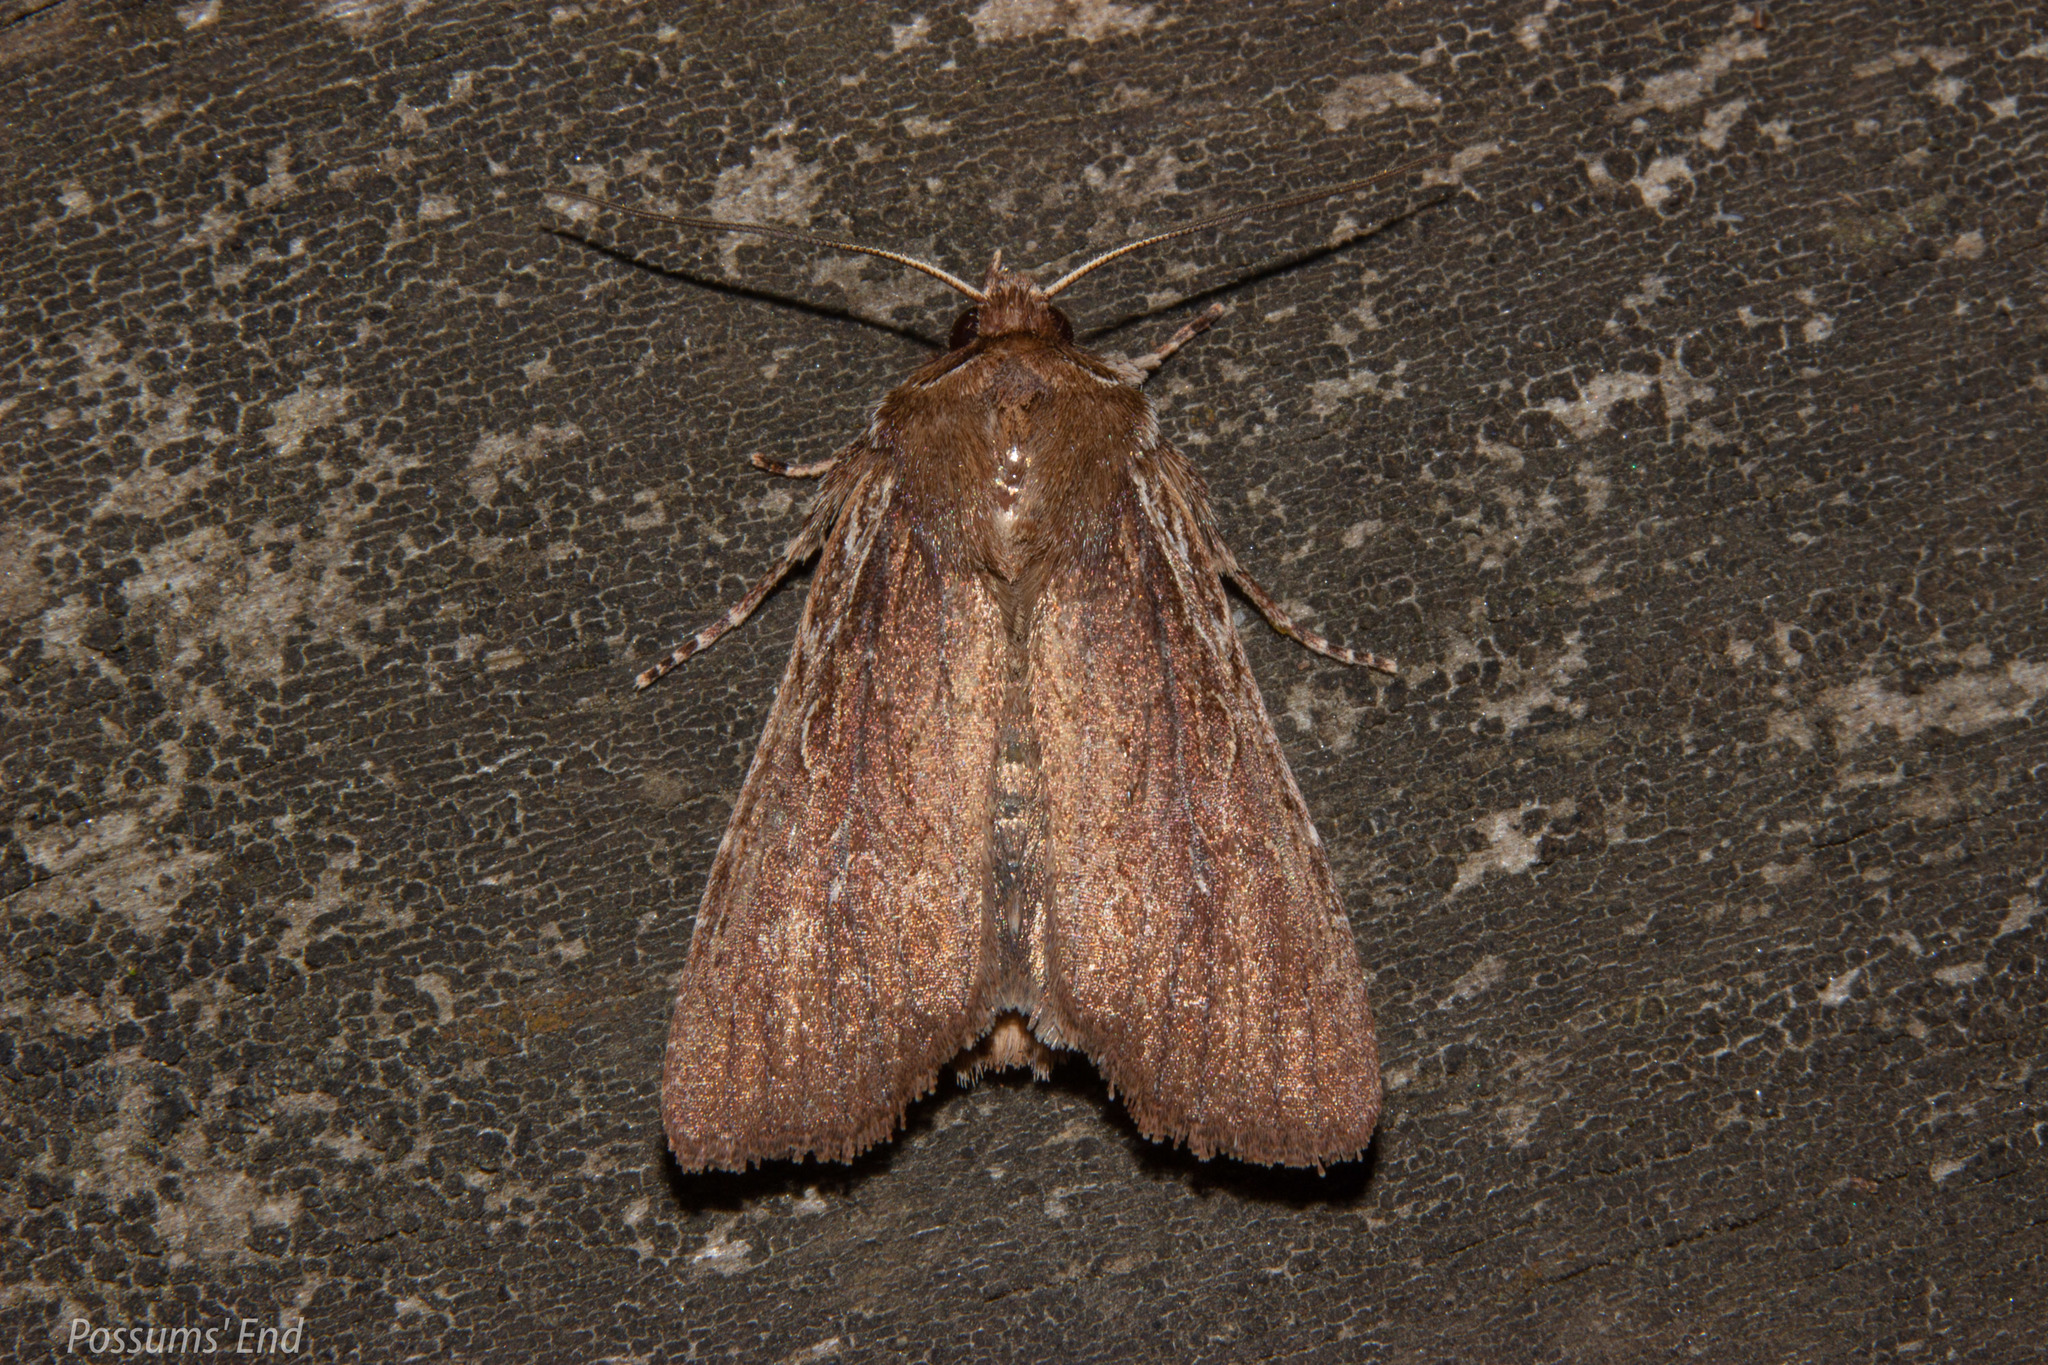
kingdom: Animalia
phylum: Arthropoda
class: Insecta
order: Lepidoptera
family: Noctuidae
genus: Ichneutica
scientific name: Ichneutica
